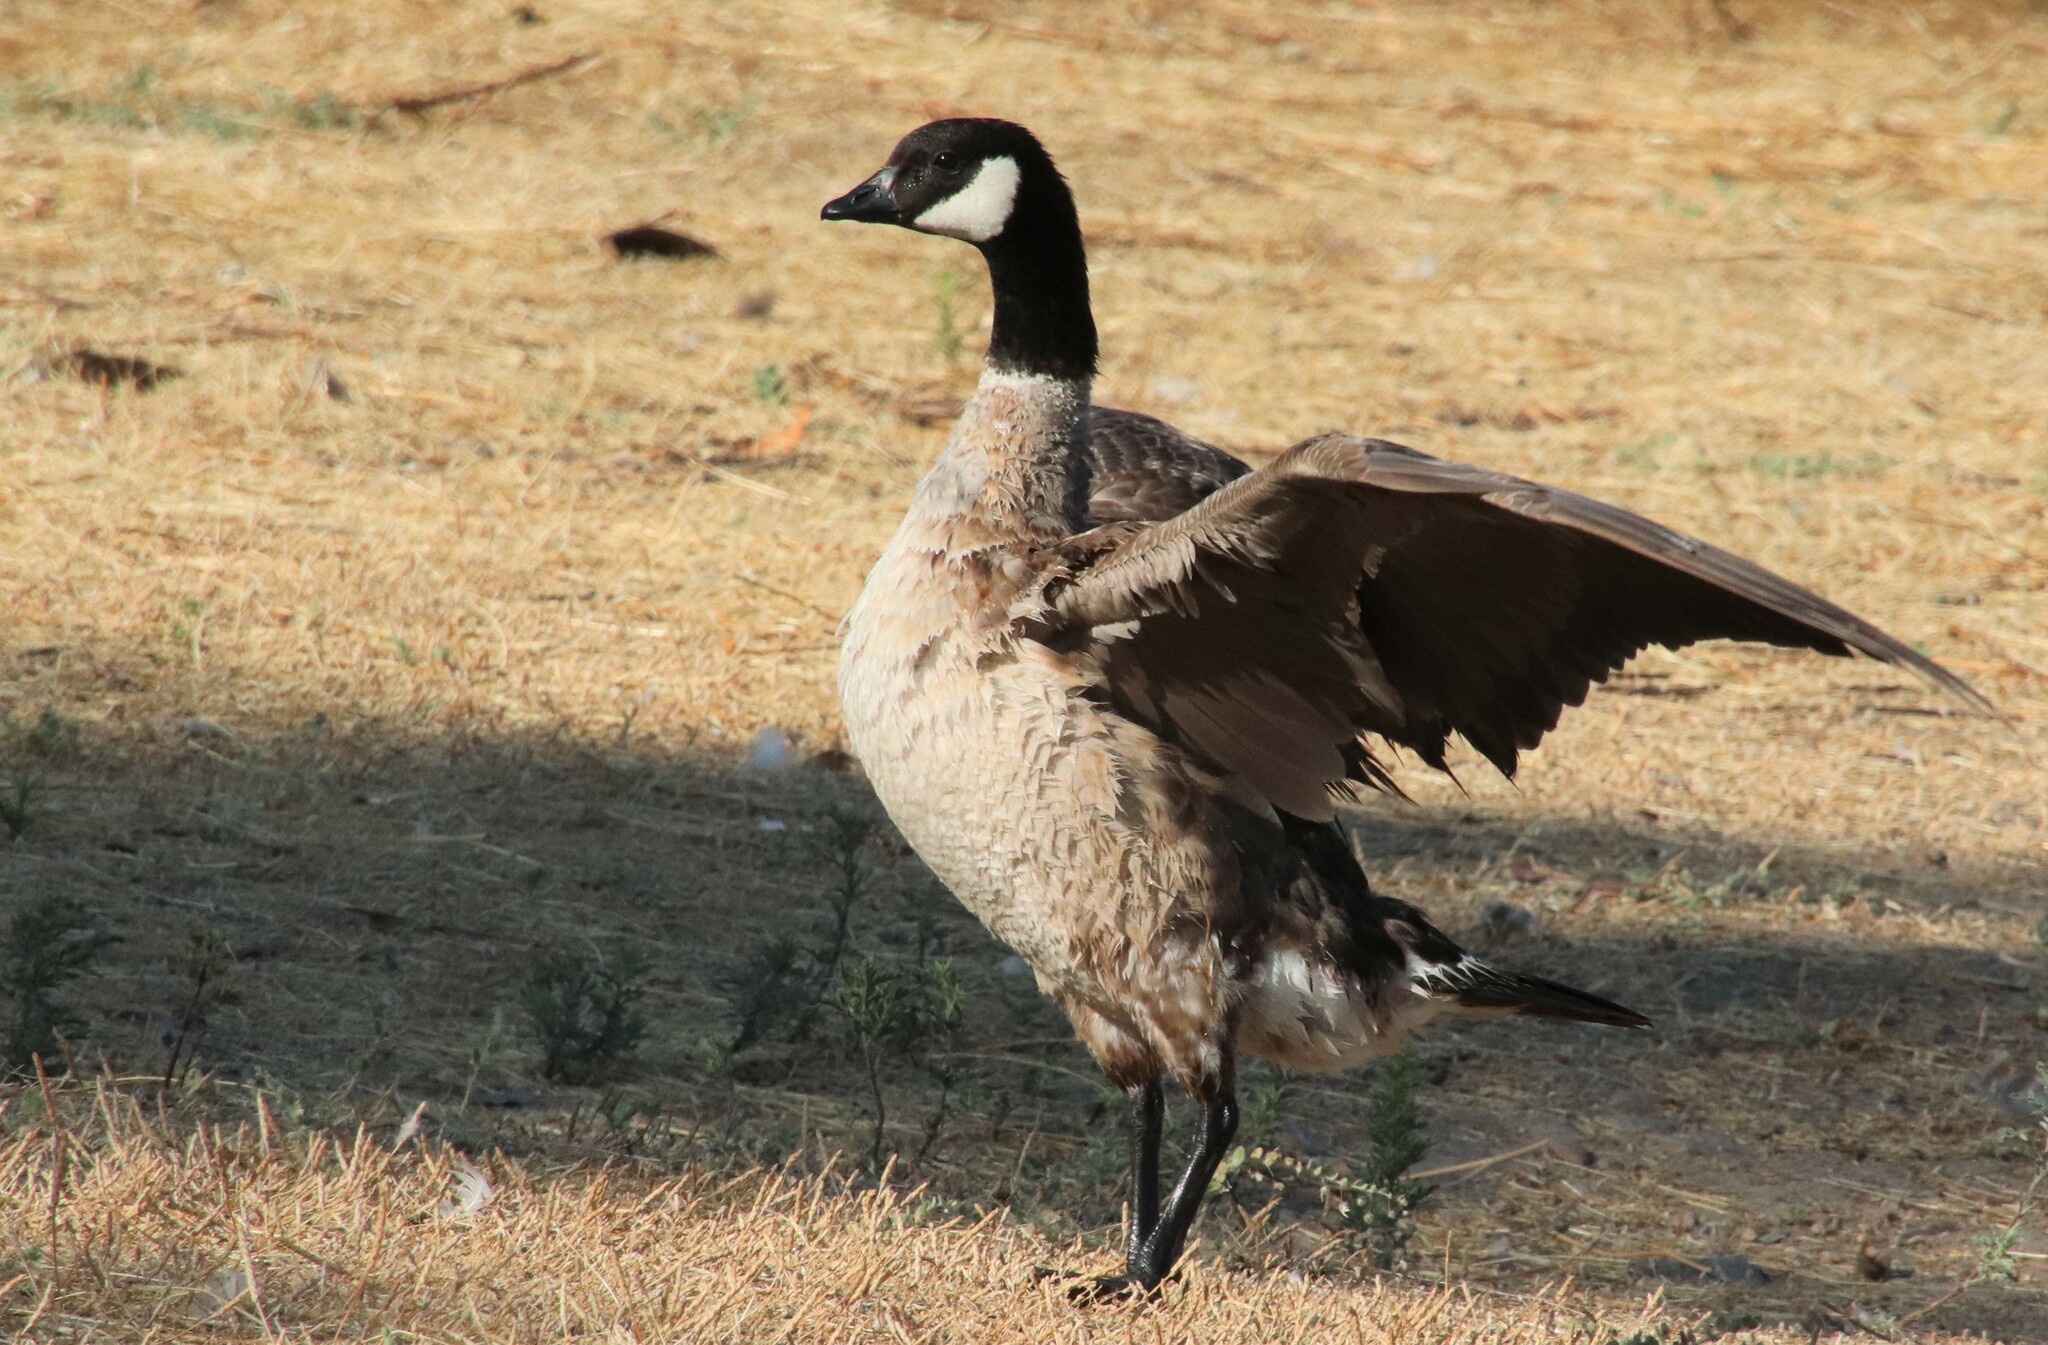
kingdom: Animalia
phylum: Chordata
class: Aves
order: Anseriformes
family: Anatidae
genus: Branta
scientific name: Branta hutchinsii
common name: Cackling goose
